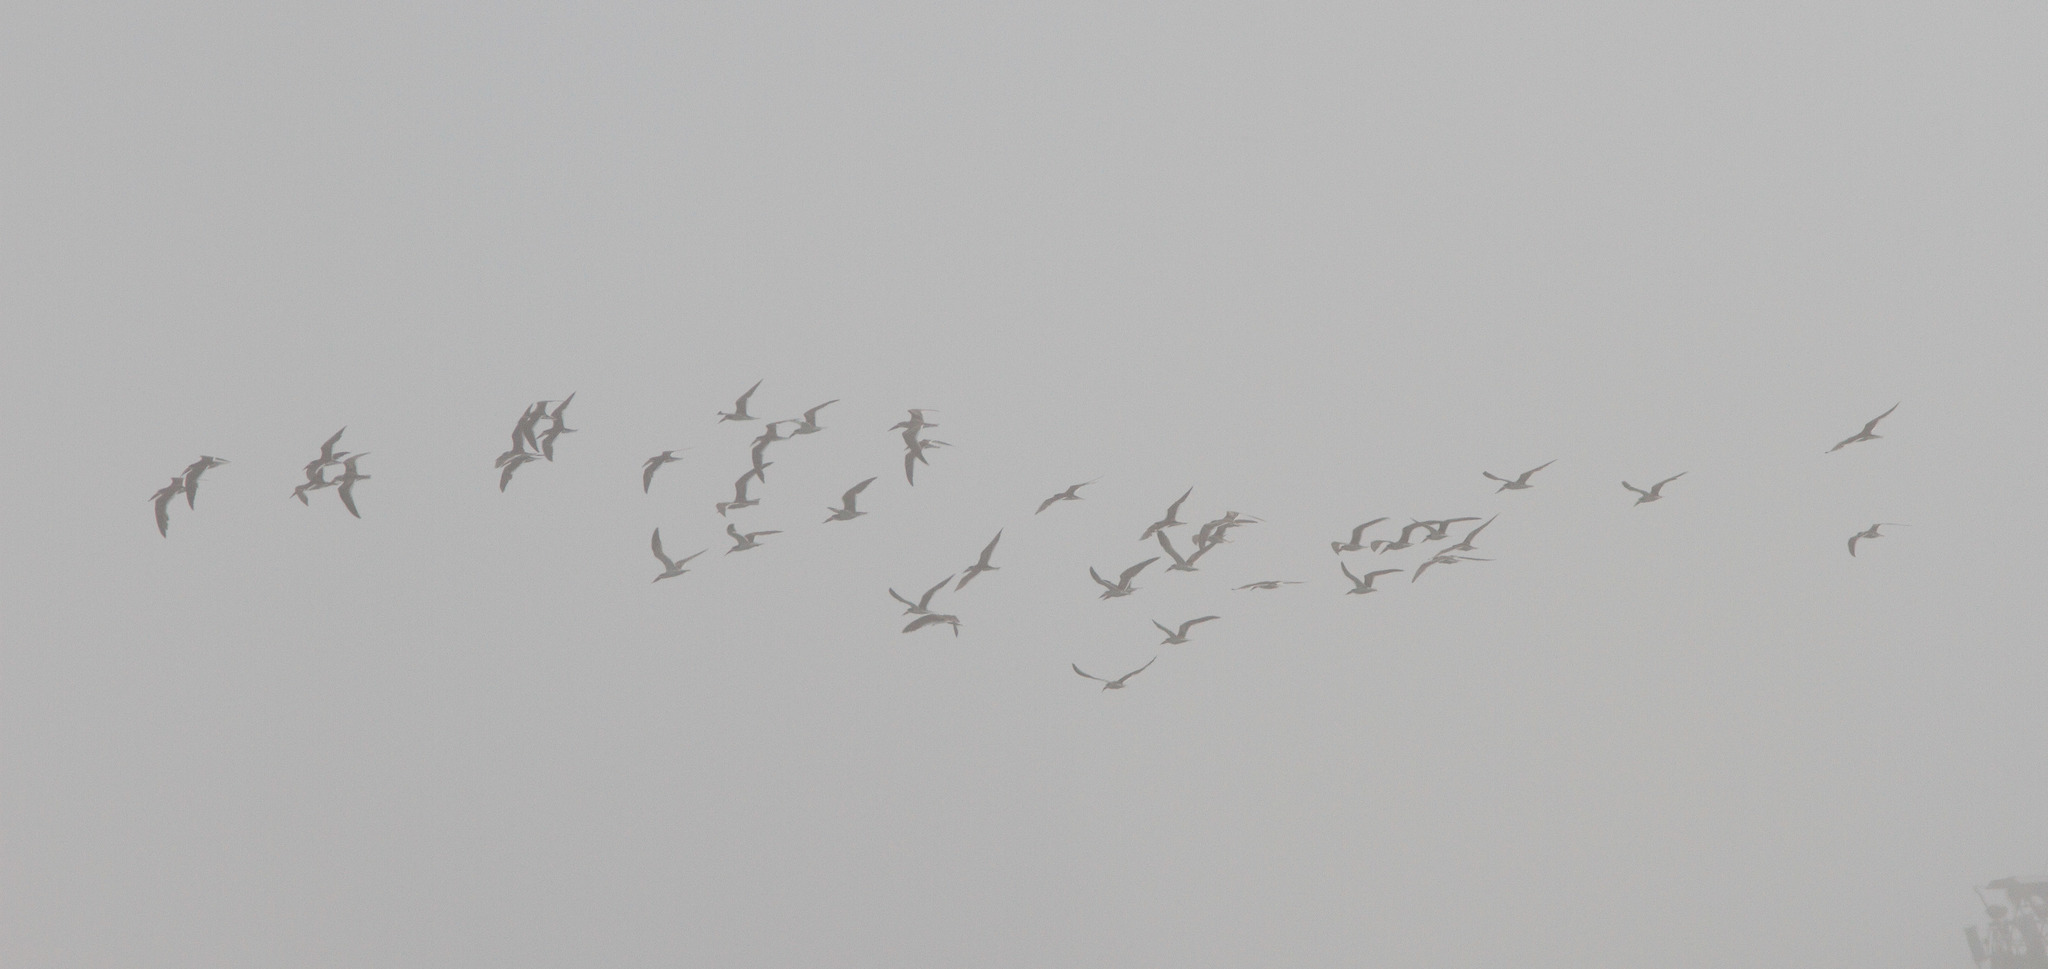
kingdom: Animalia
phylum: Chordata
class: Aves
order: Charadriiformes
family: Laridae
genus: Rynchops
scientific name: Rynchops niger
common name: Black skimmer
